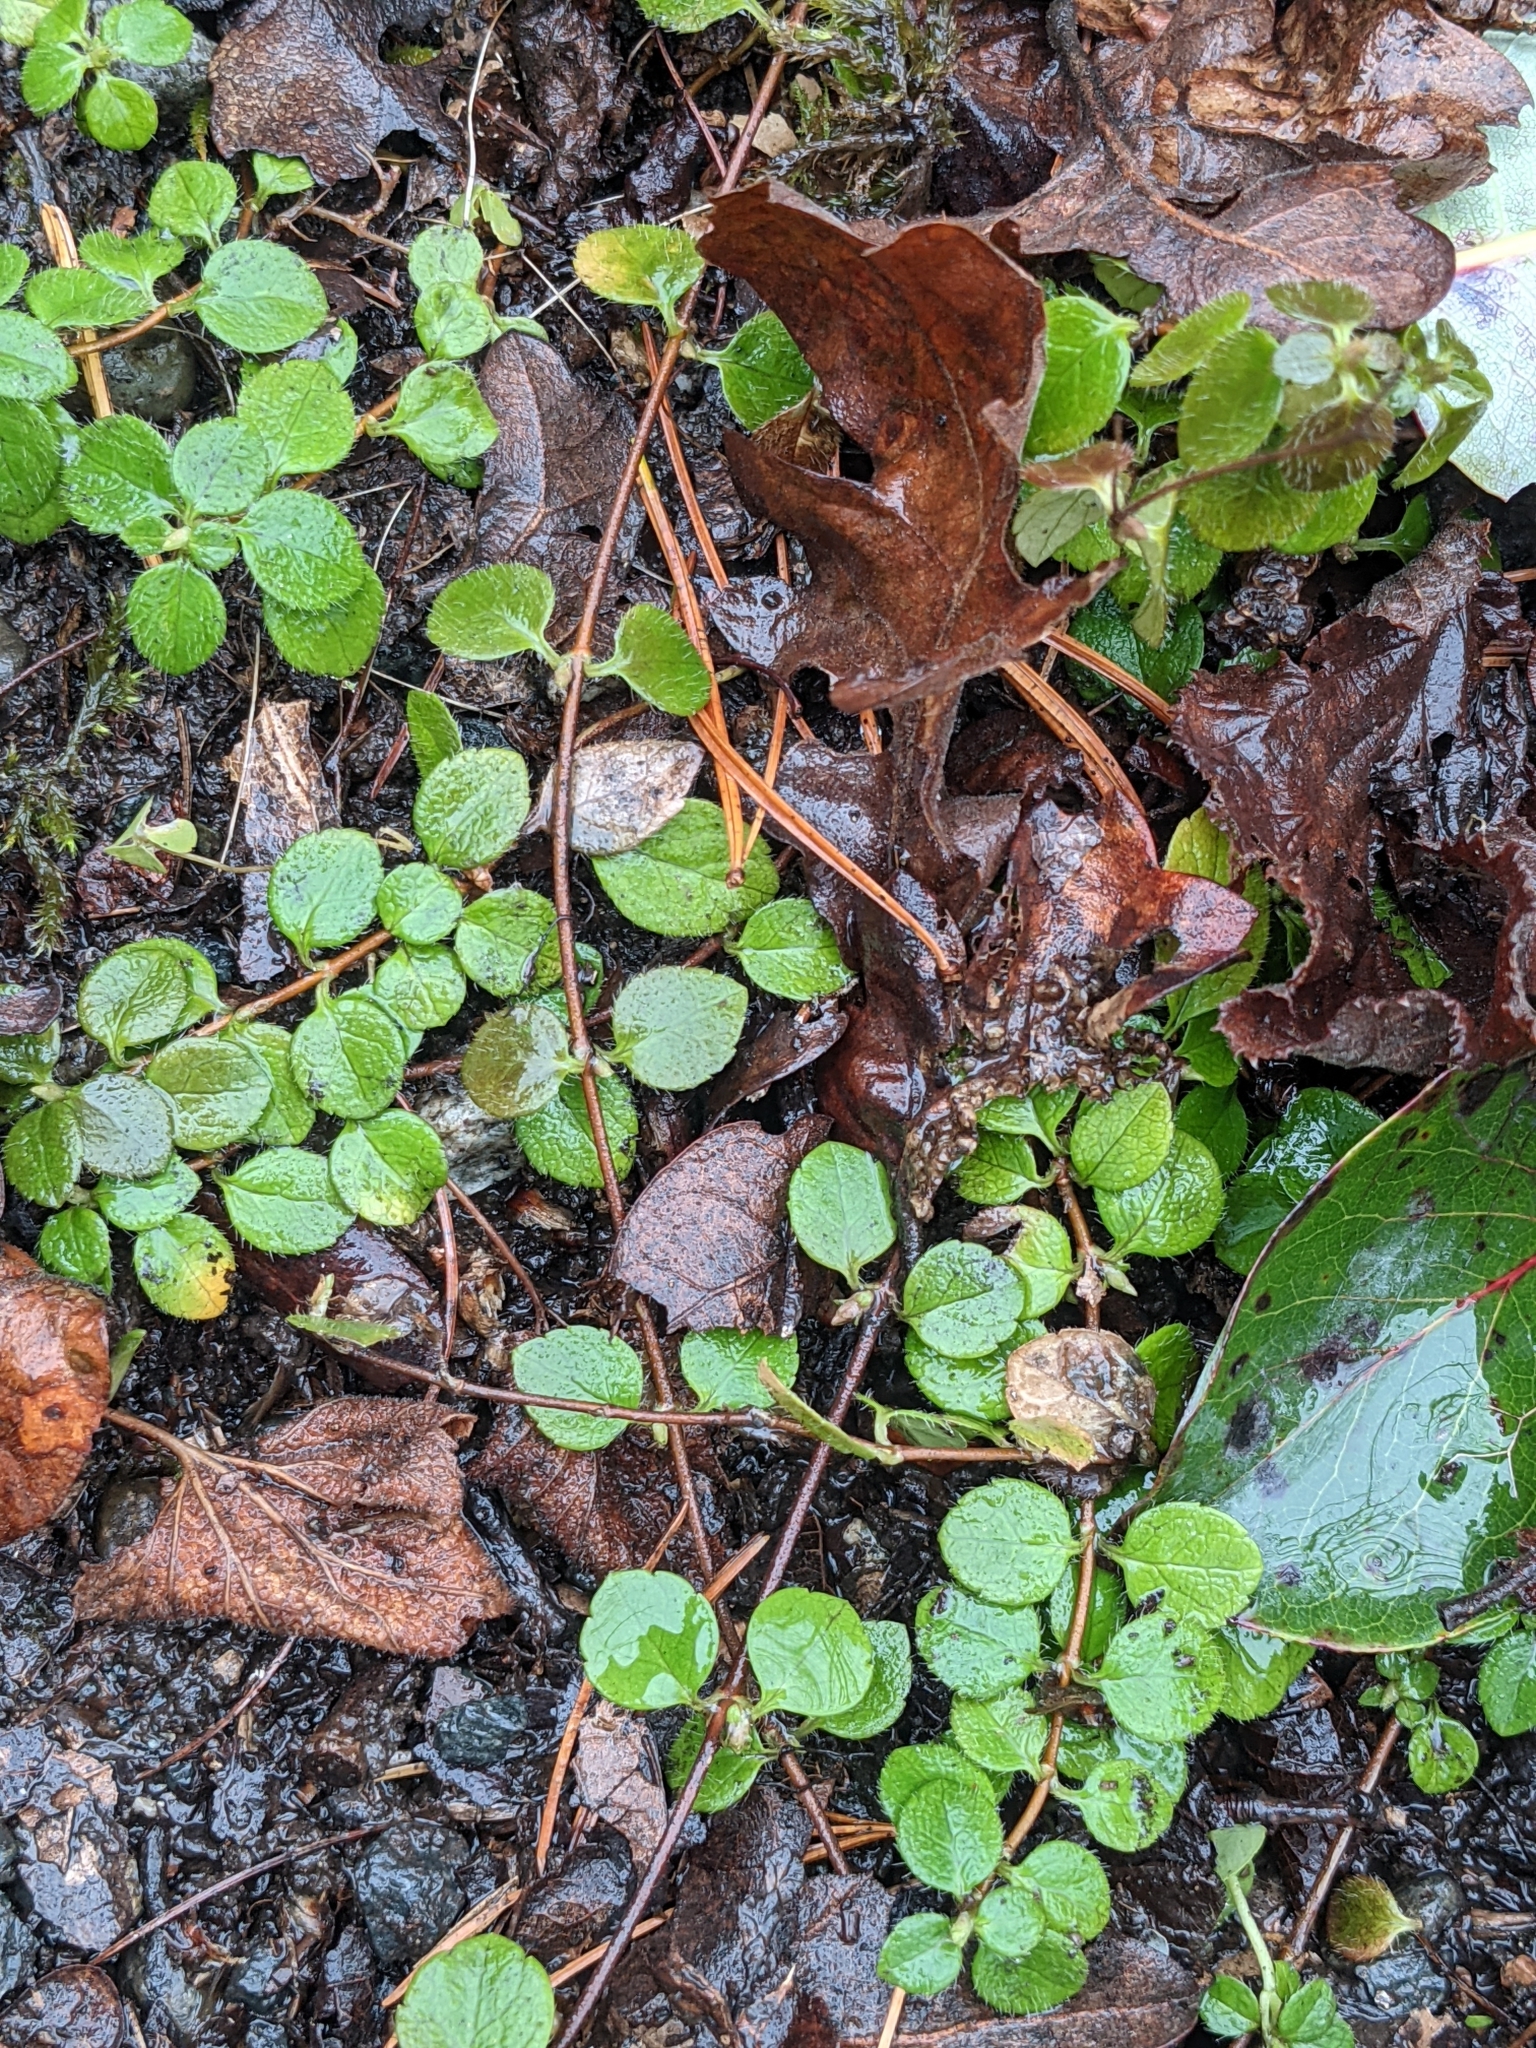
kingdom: Plantae
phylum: Tracheophyta
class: Magnoliopsida
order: Dipsacales
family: Caprifoliaceae
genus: Linnaea
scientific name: Linnaea borealis
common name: Twinflower
